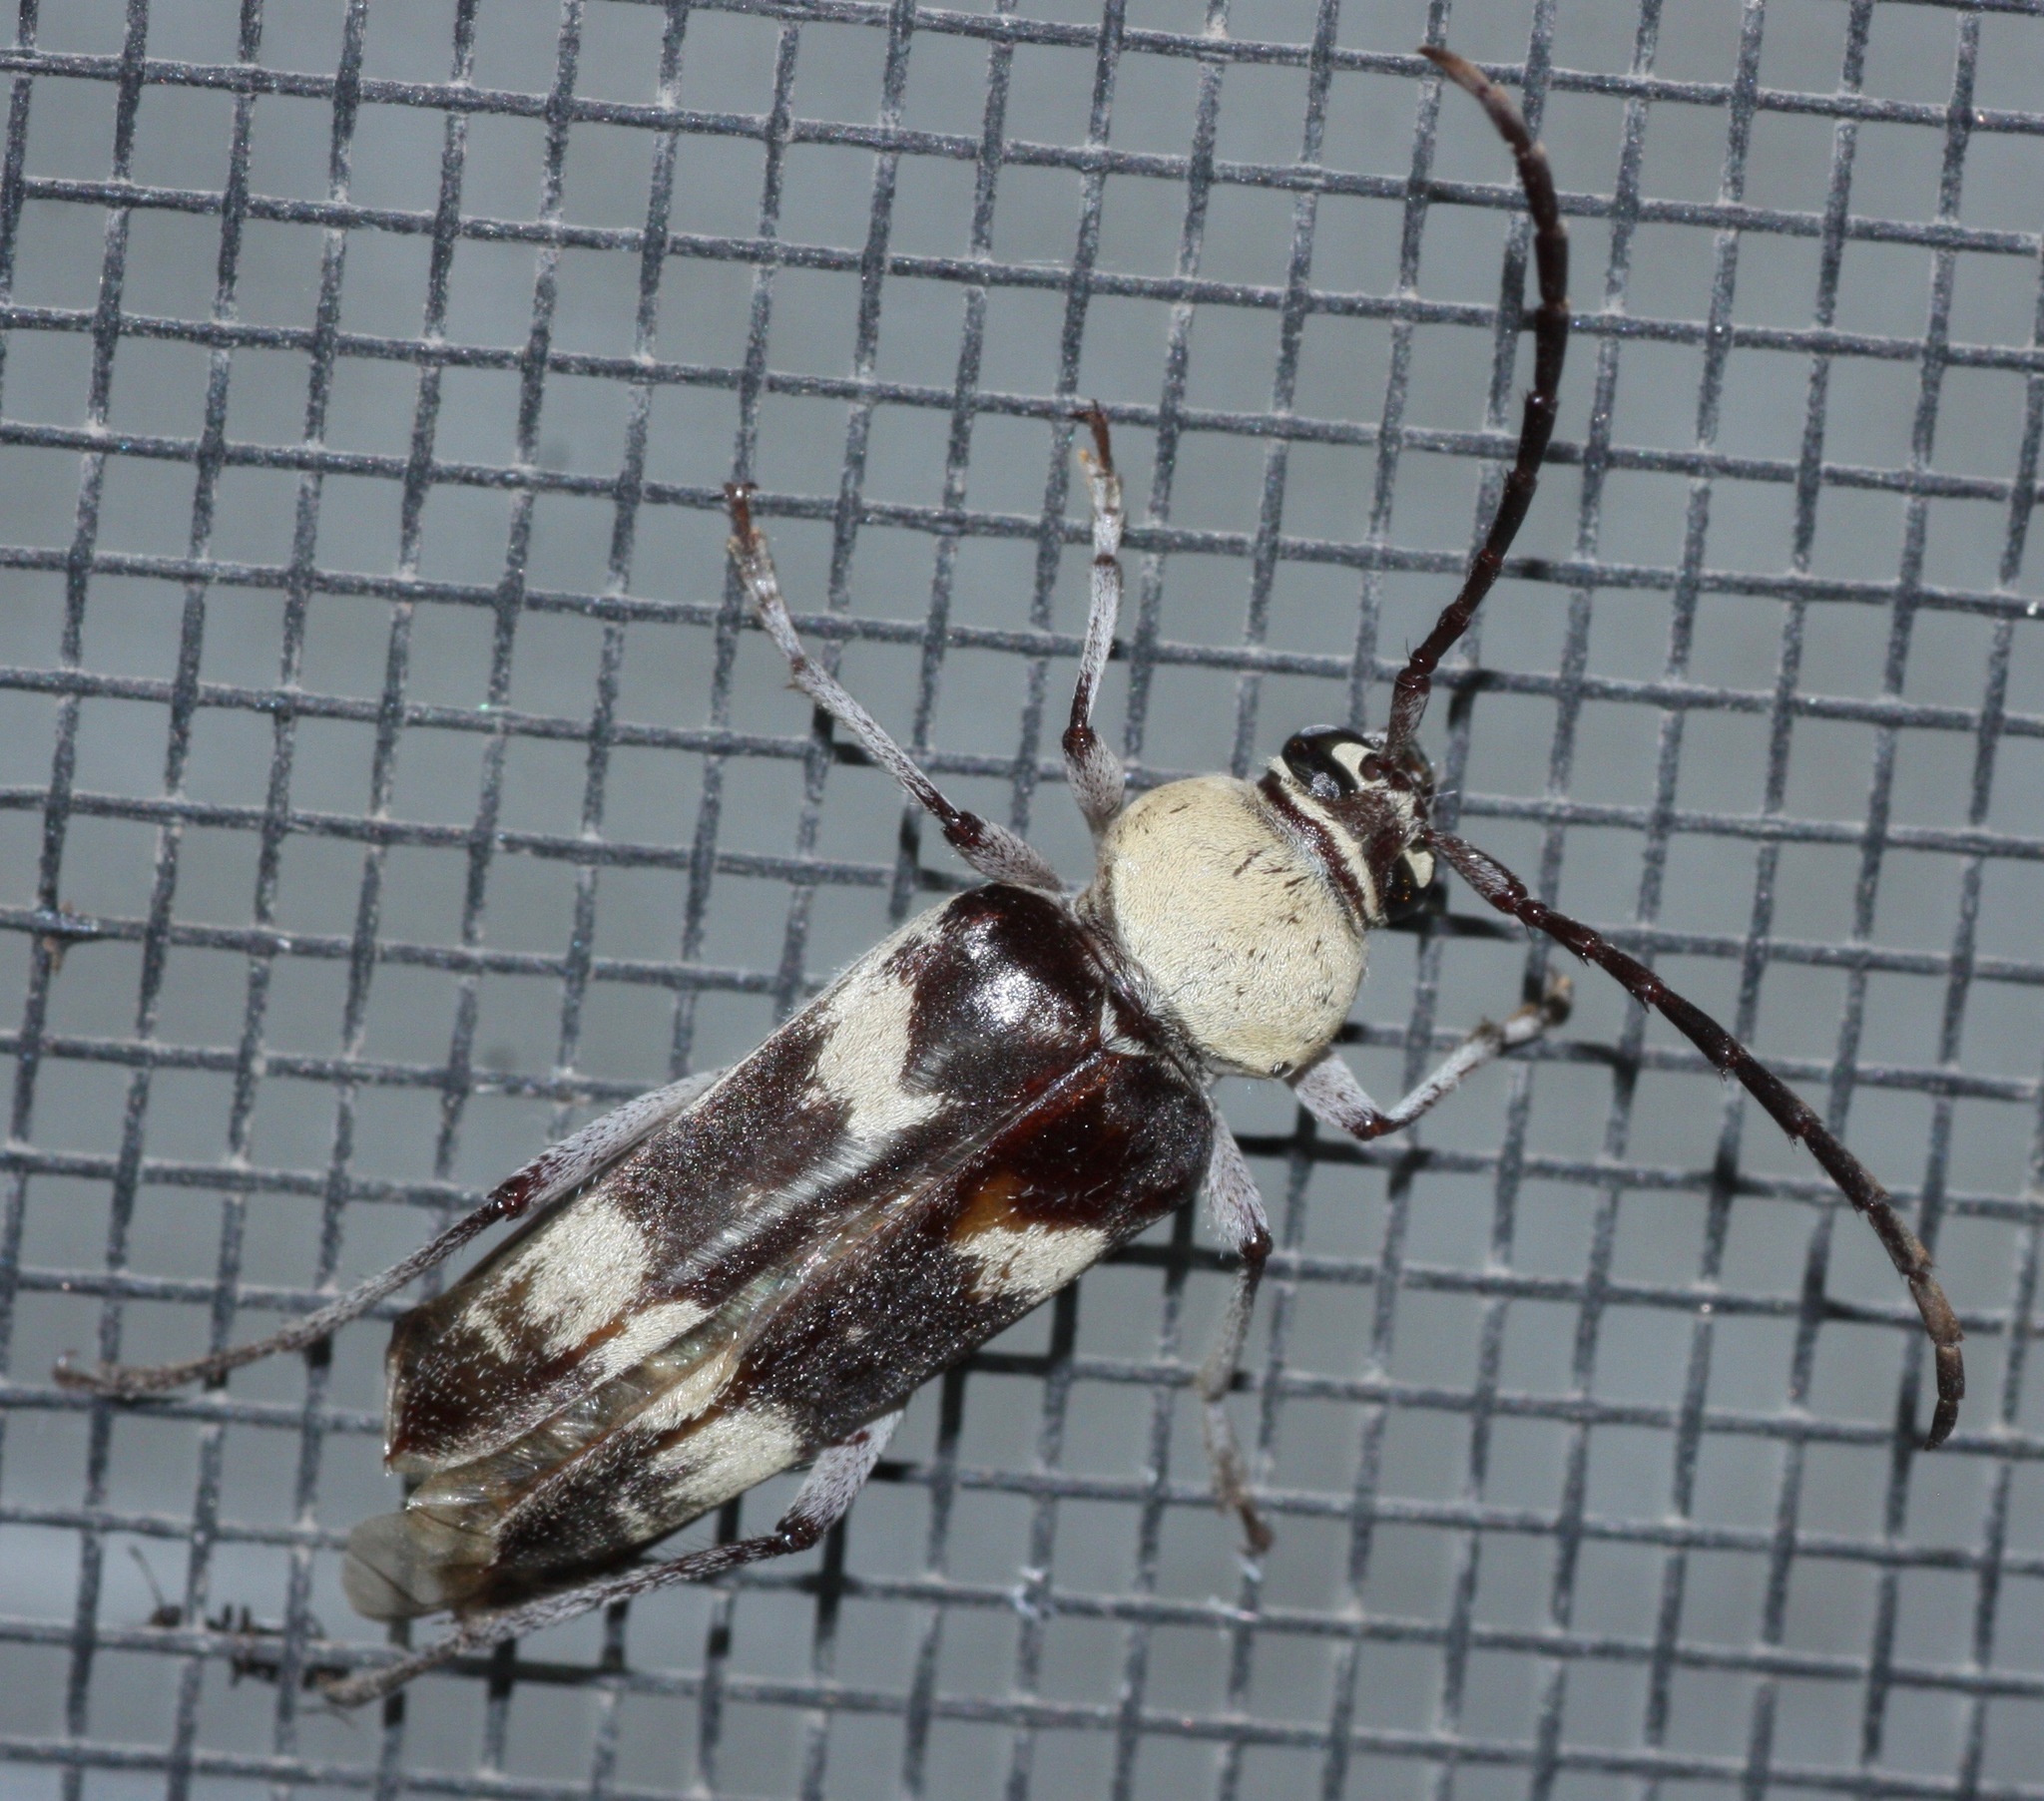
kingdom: Animalia
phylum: Arthropoda
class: Insecta
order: Coleoptera
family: Cerambycidae
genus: Megacyllene
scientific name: Megacyllene antennata
